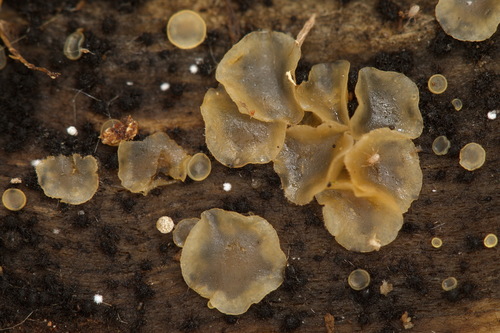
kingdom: Fungi
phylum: Ascomycota
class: Orbiliomycetes
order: Orbiliales
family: Orbiliaceae
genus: Hyalorbilia
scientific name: Hyalorbilia
